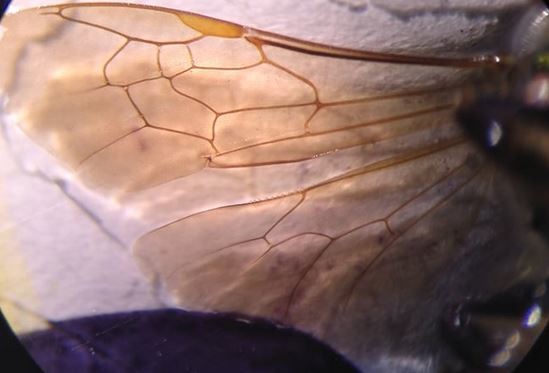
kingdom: Animalia
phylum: Arthropoda
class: Insecta
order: Hymenoptera
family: Halictidae
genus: Agapostemon
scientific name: Agapostemon virescens
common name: Bicolored striped sweat bee
